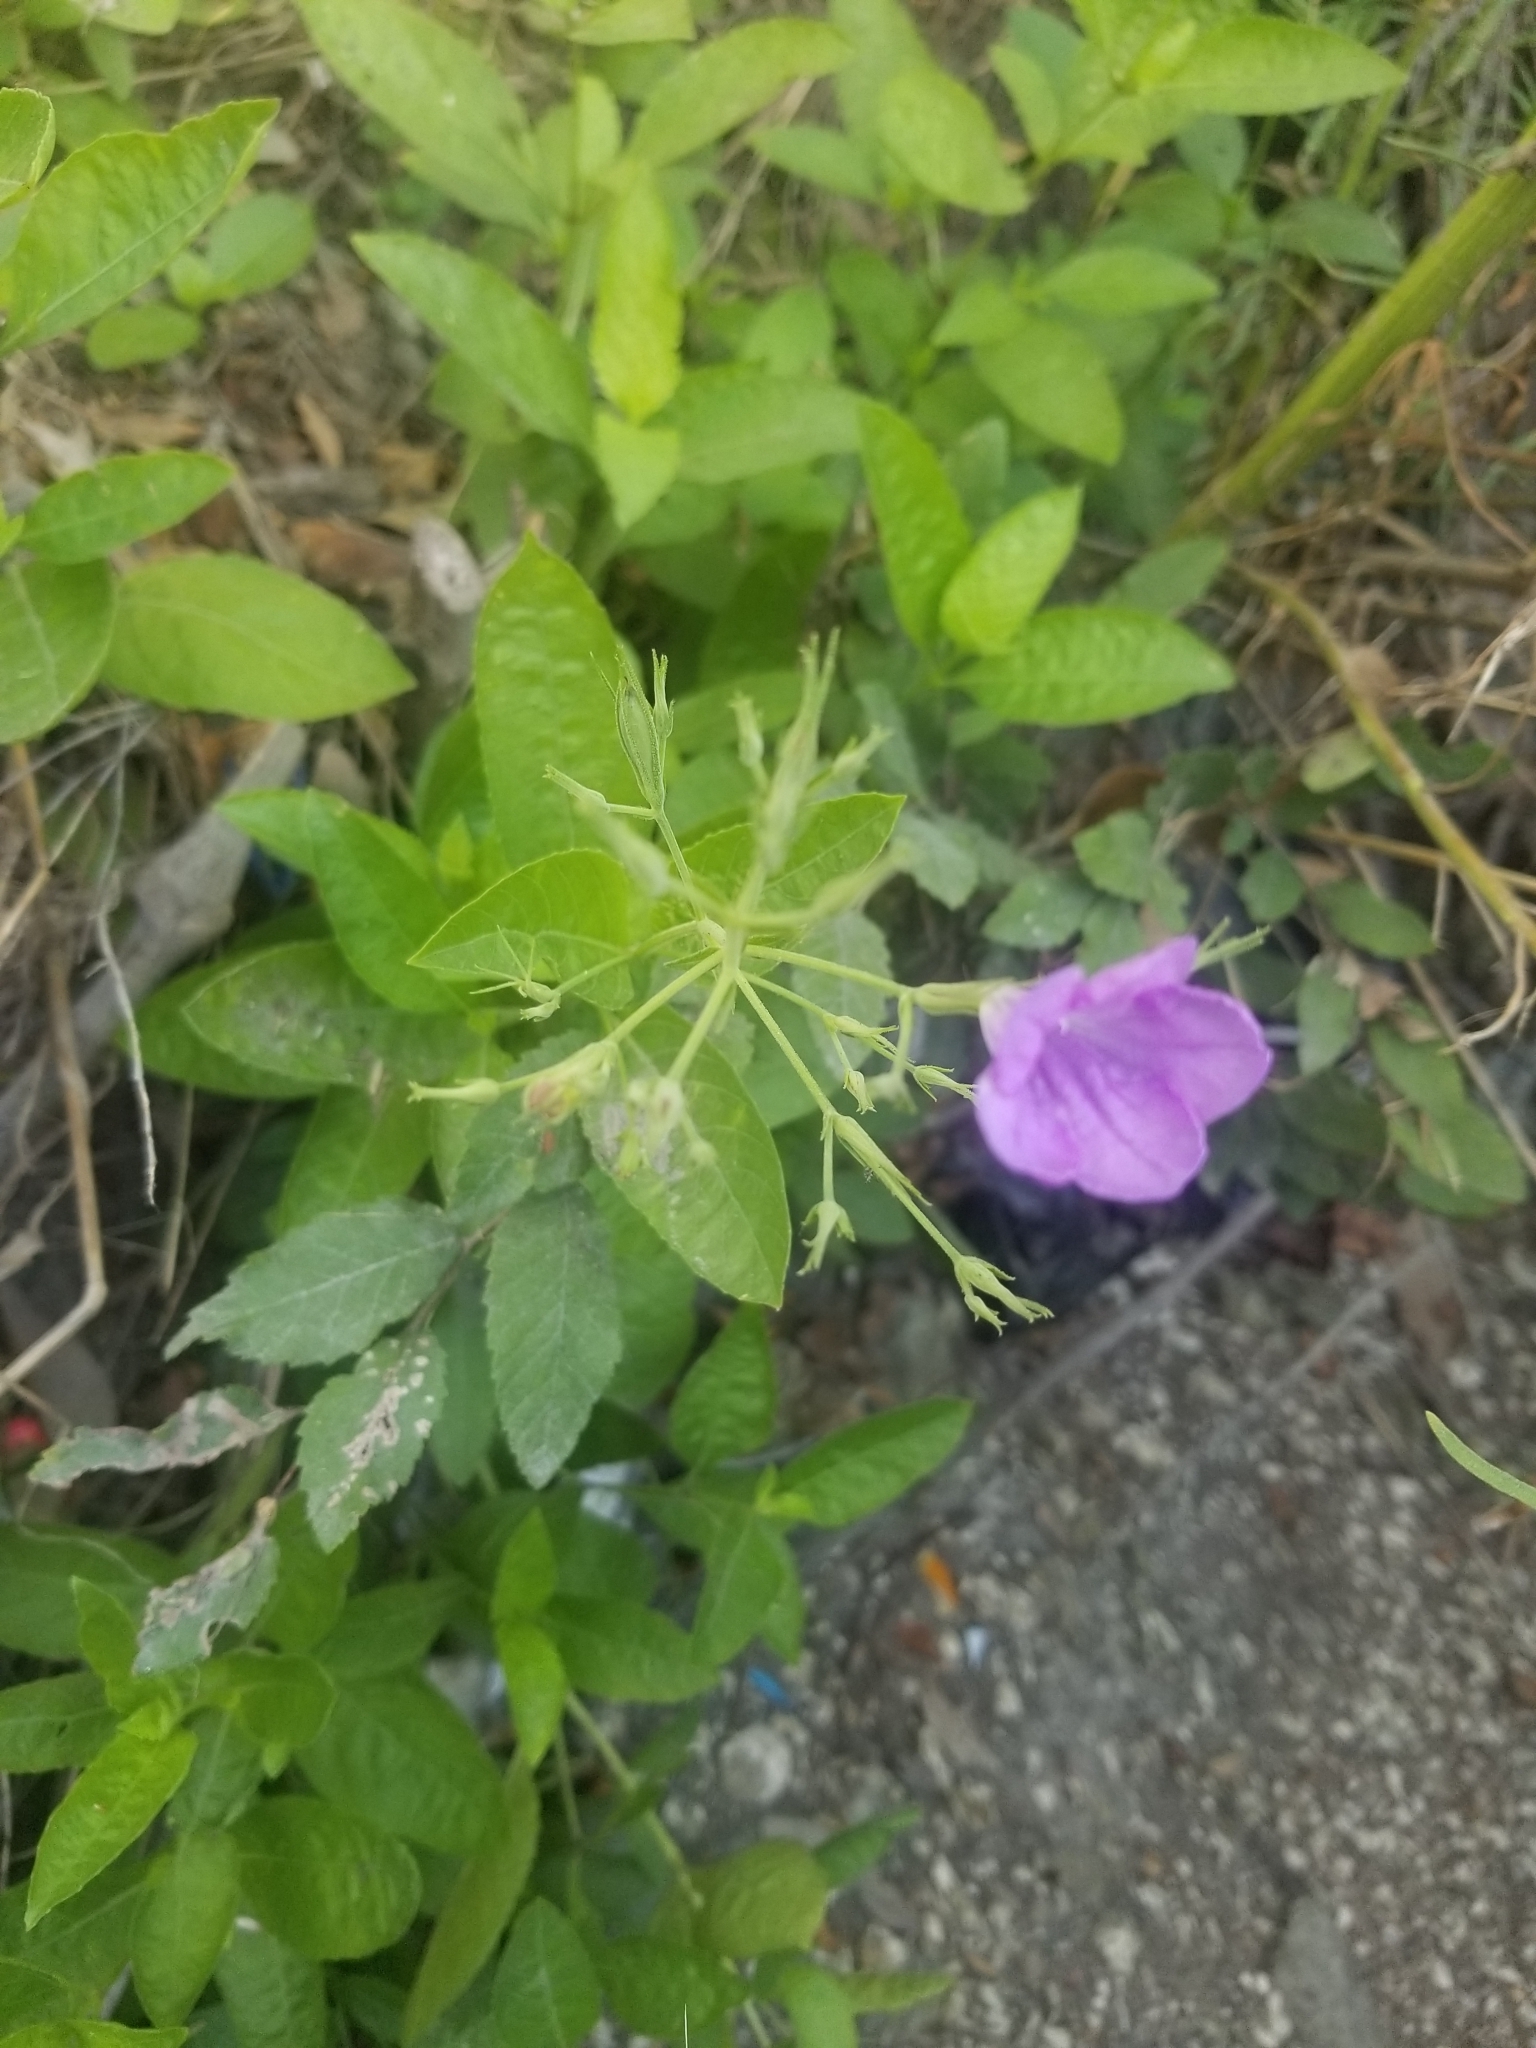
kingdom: Plantae
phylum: Tracheophyta
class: Magnoliopsida
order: Lamiales
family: Acanthaceae
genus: Ruellia
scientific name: Ruellia ciliatiflora
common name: Hairyflower wild petunia
